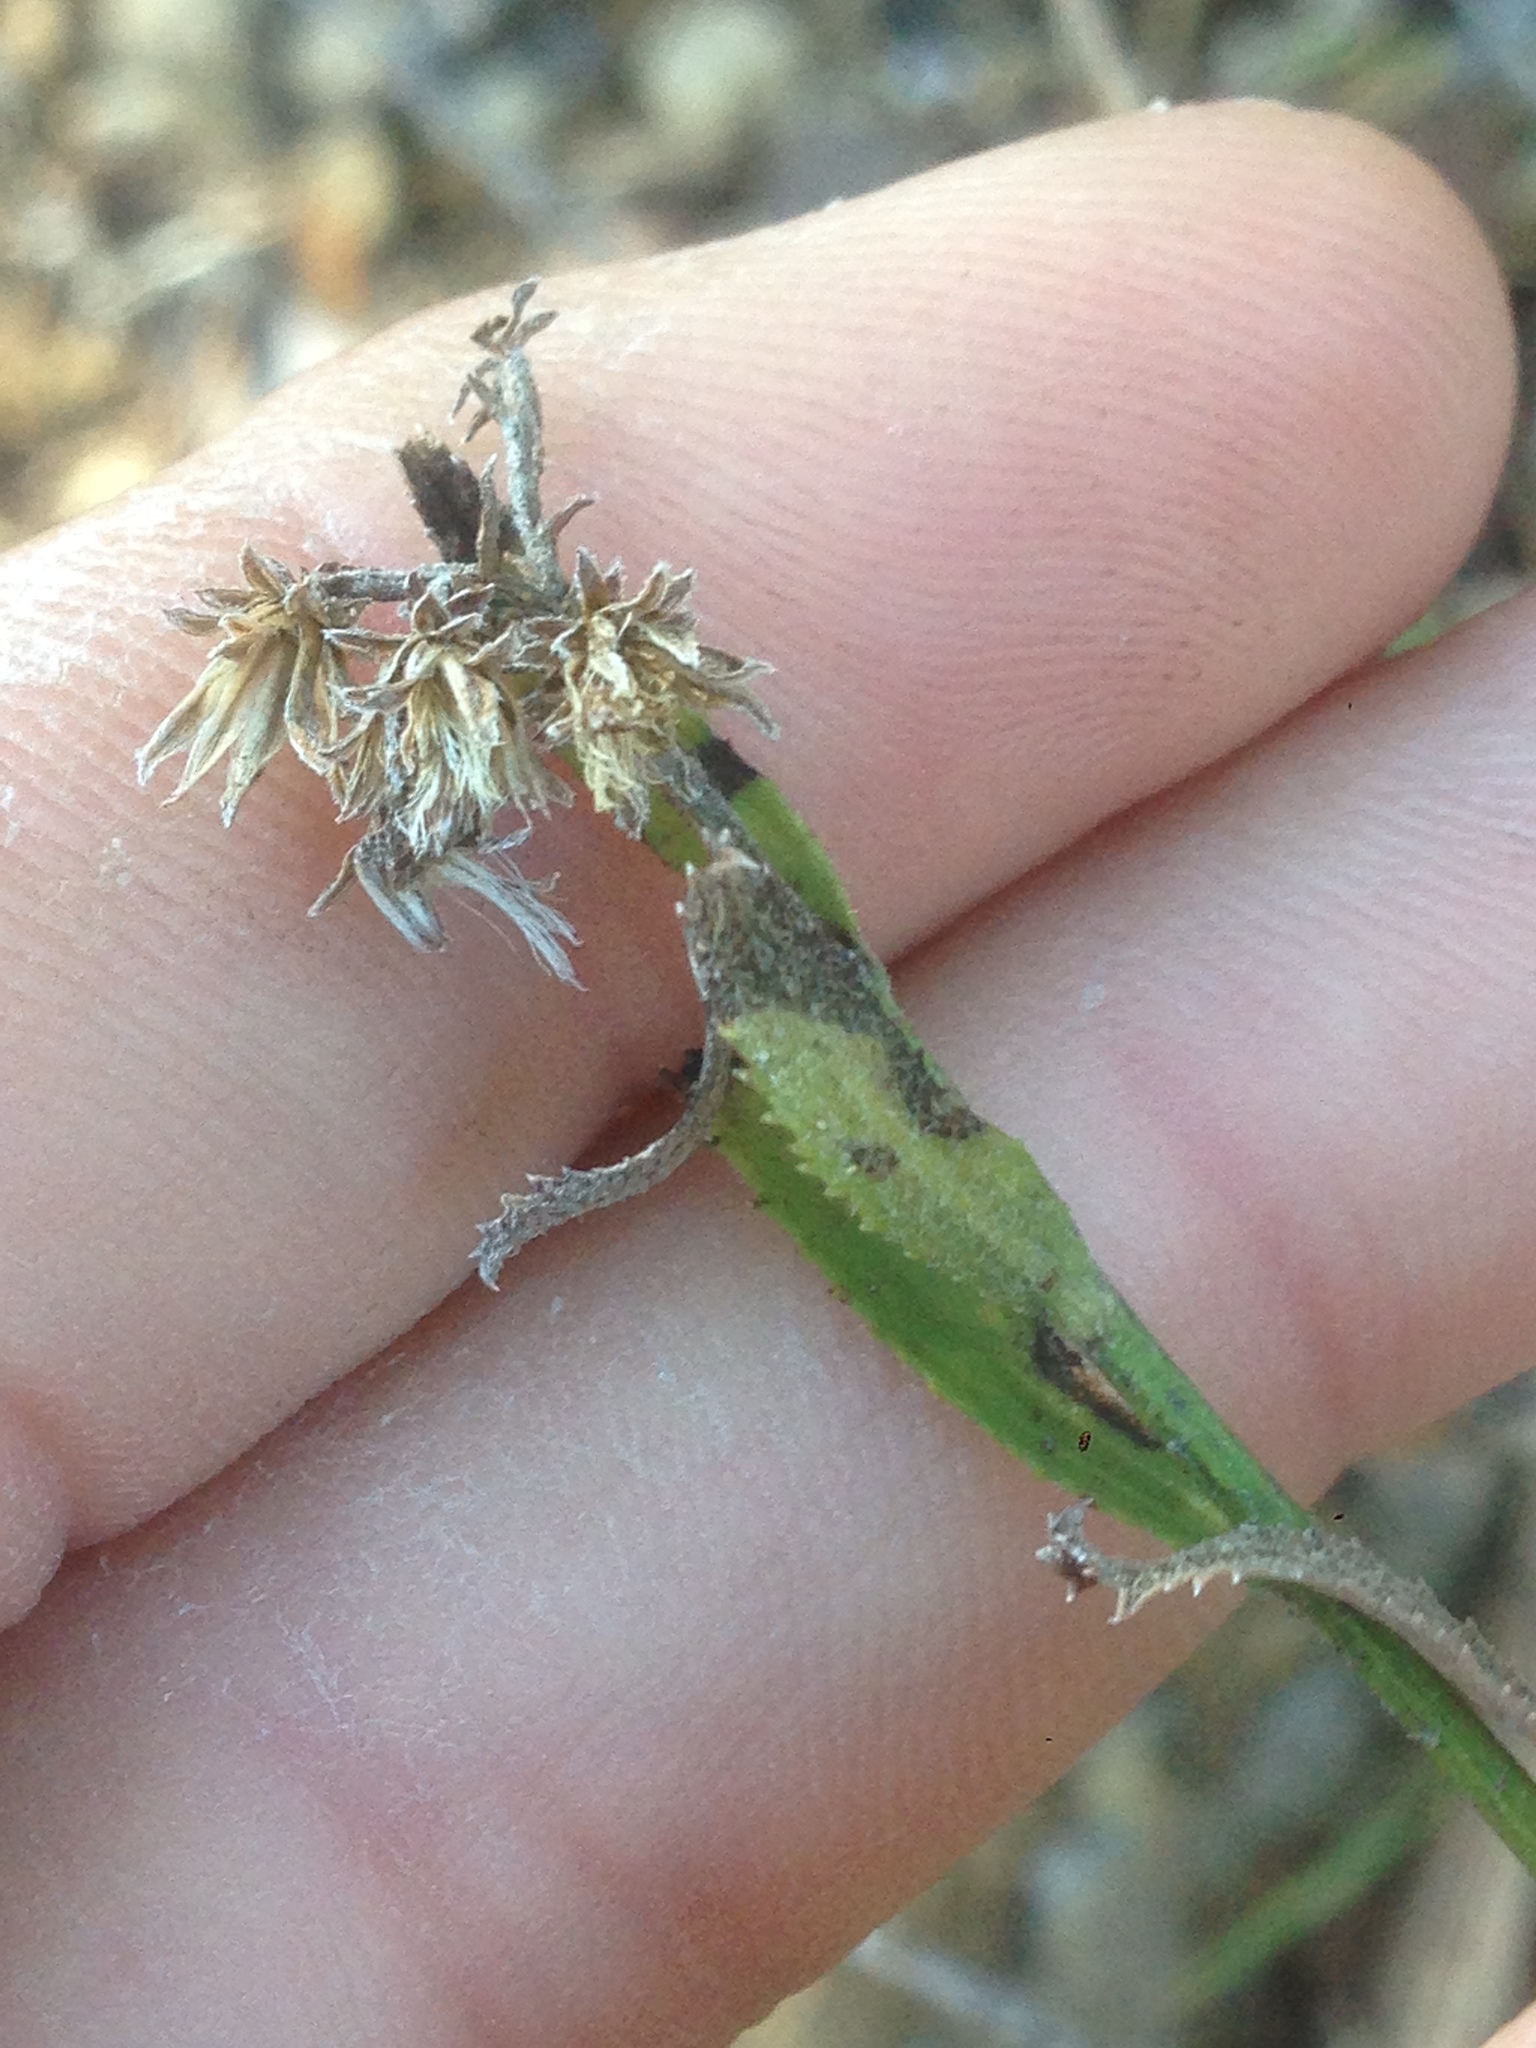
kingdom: Plantae
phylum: Tracheophyta
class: Magnoliopsida
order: Asterales
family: Asteraceae
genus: Baccharis
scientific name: Baccharis plummerae
